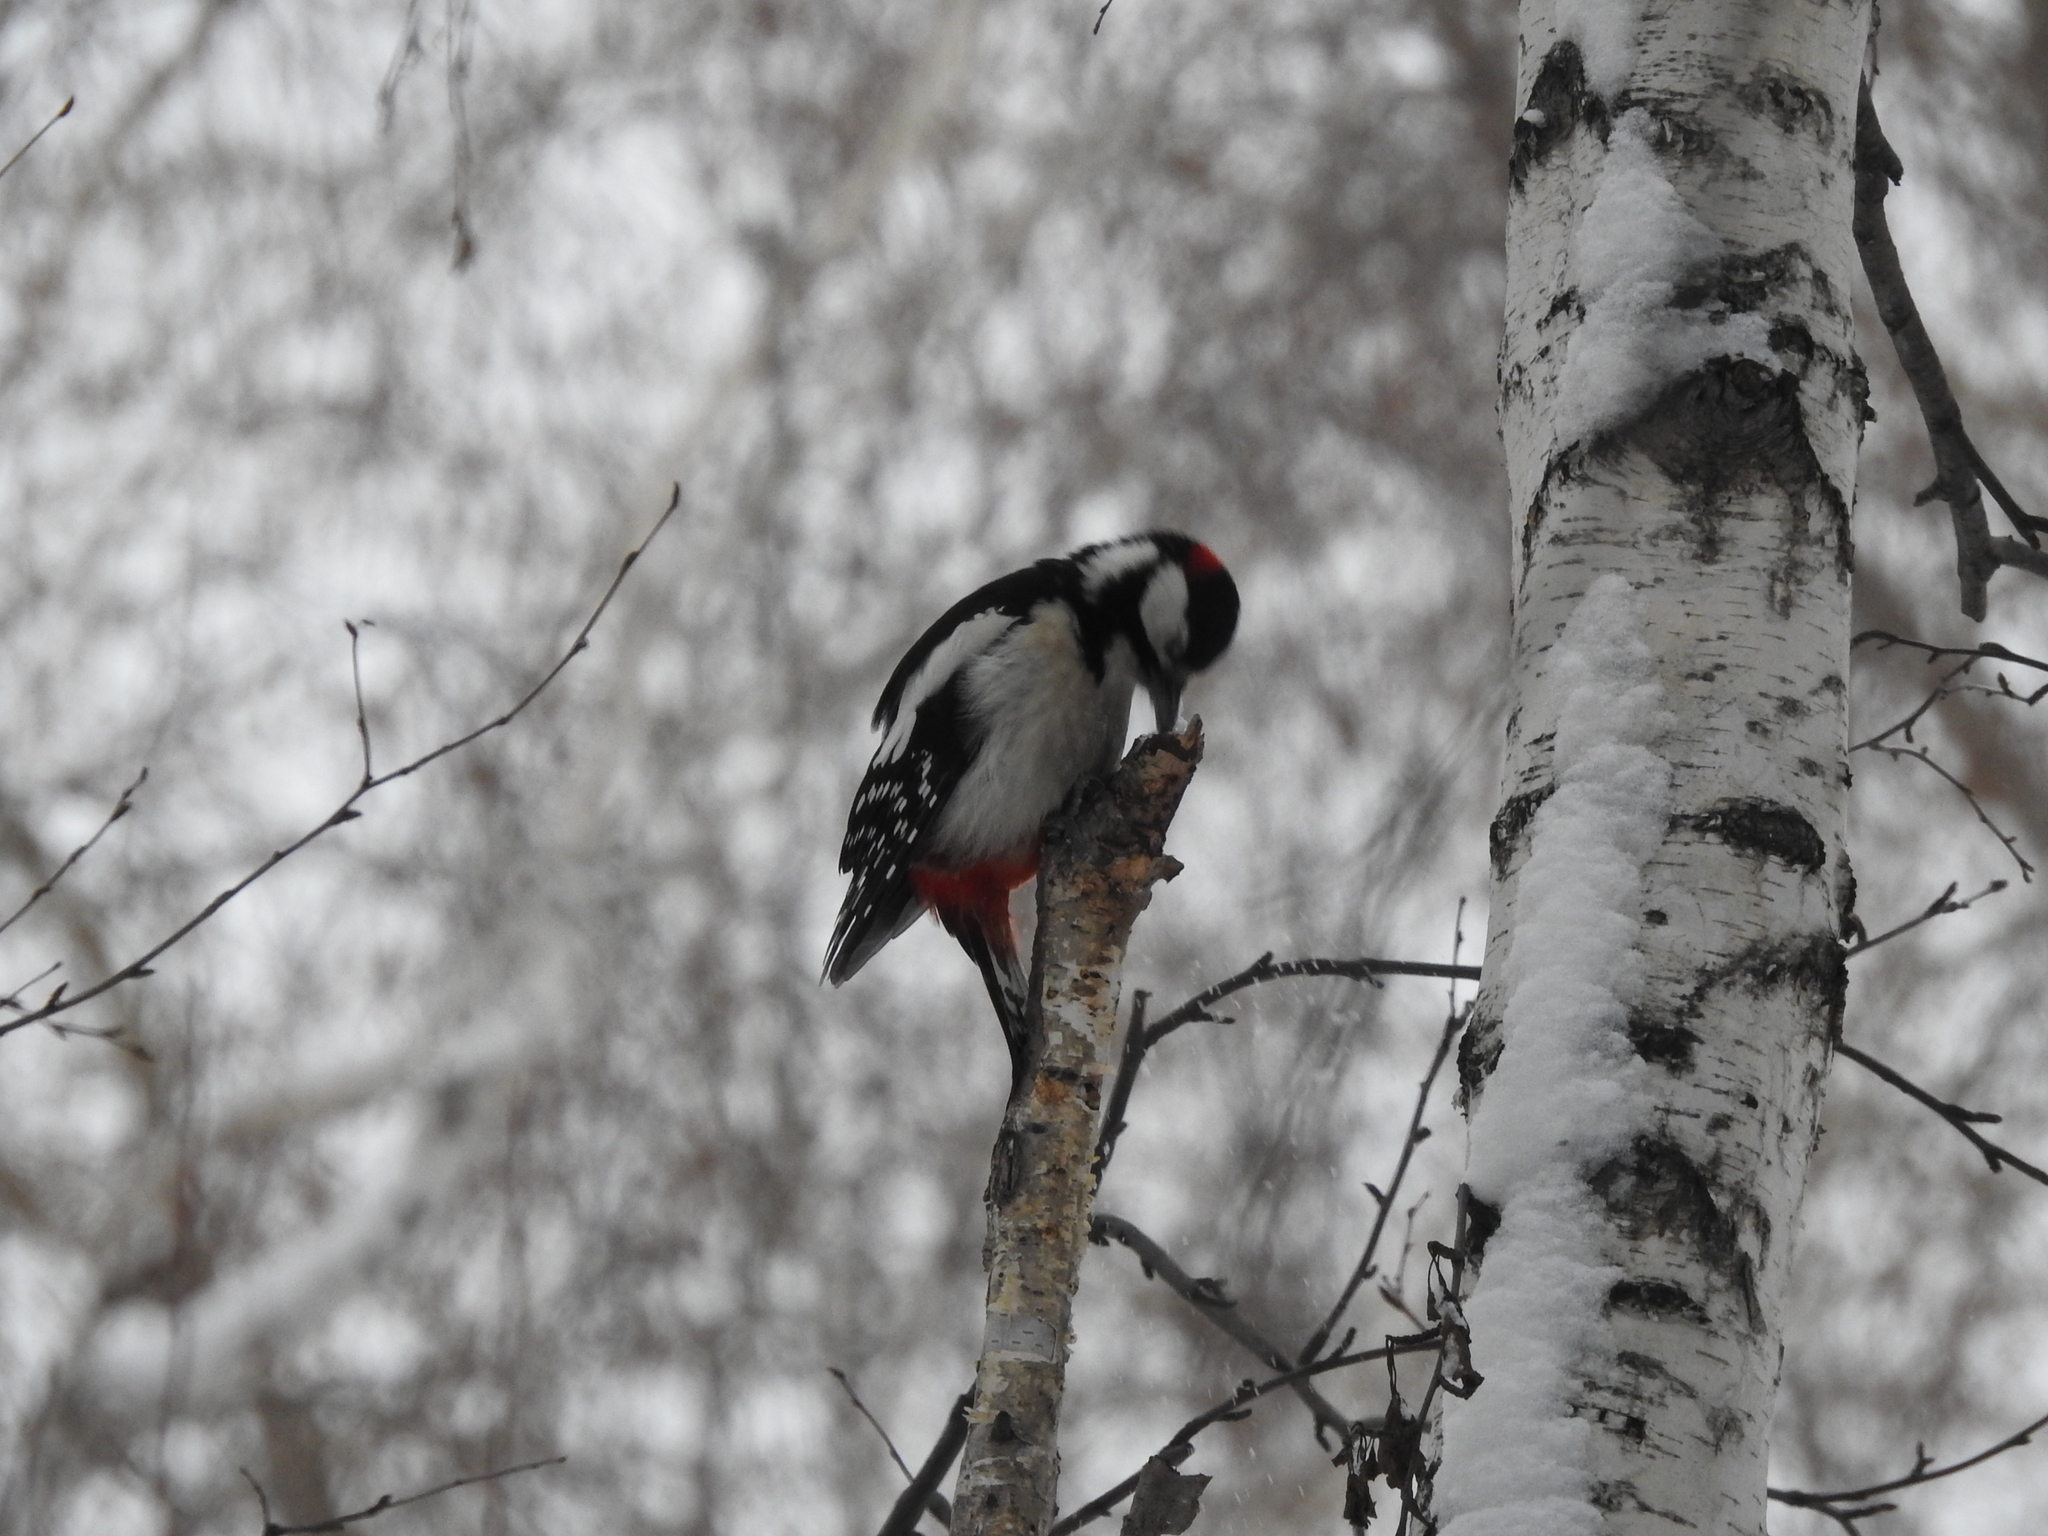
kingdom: Animalia
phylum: Chordata
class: Aves
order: Piciformes
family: Picidae
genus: Dendrocopos
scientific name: Dendrocopos major
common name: Great spotted woodpecker
